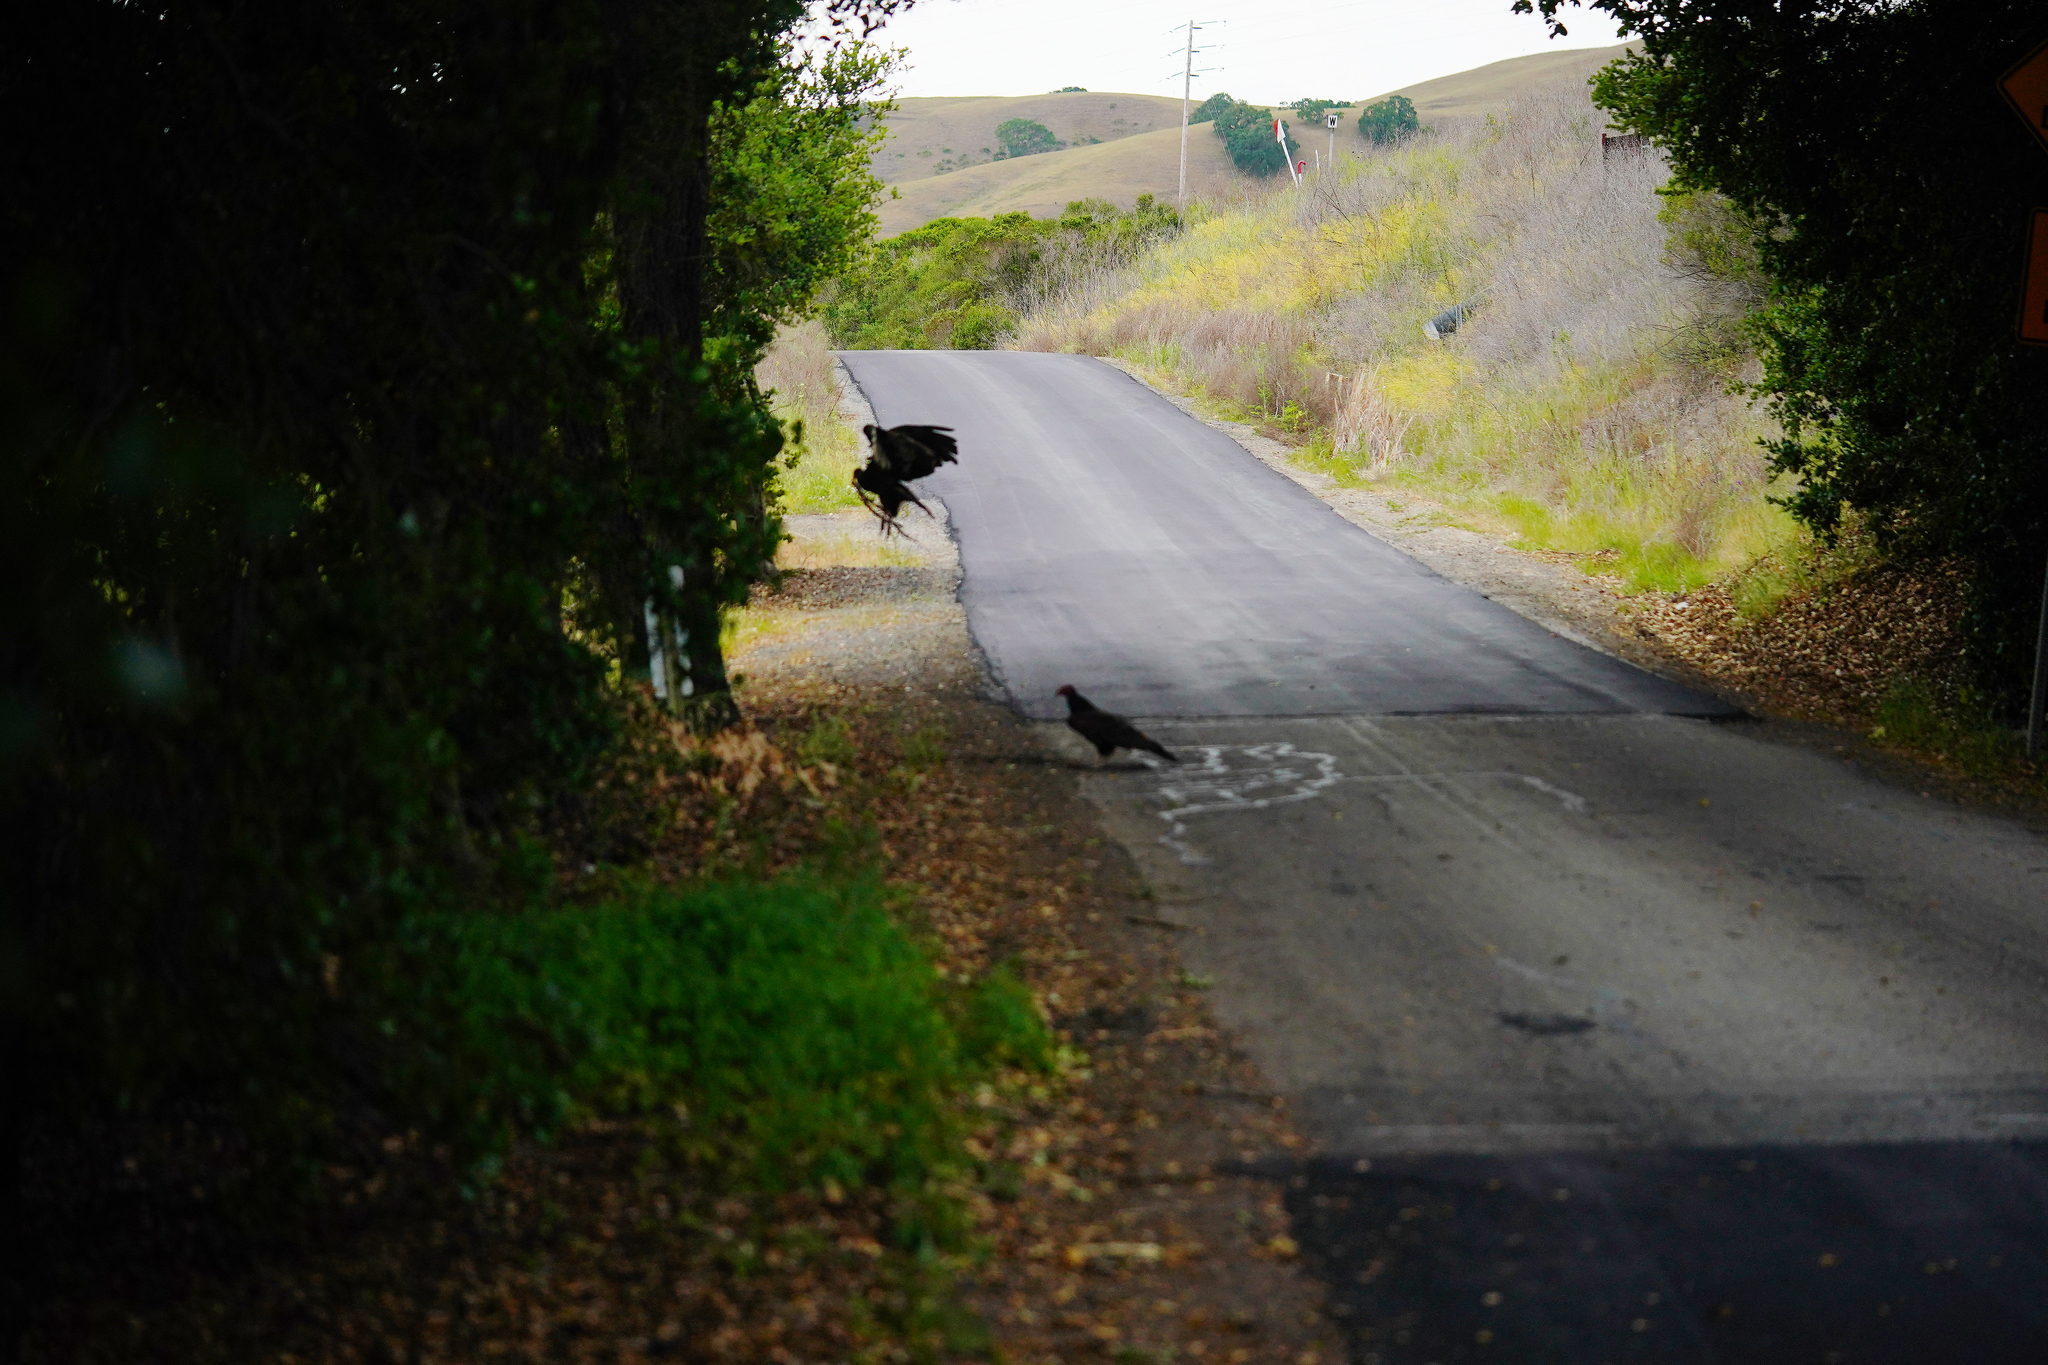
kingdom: Animalia
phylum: Chordata
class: Aves
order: Accipitriformes
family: Cathartidae
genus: Cathartes
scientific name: Cathartes aura
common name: Turkey vulture
